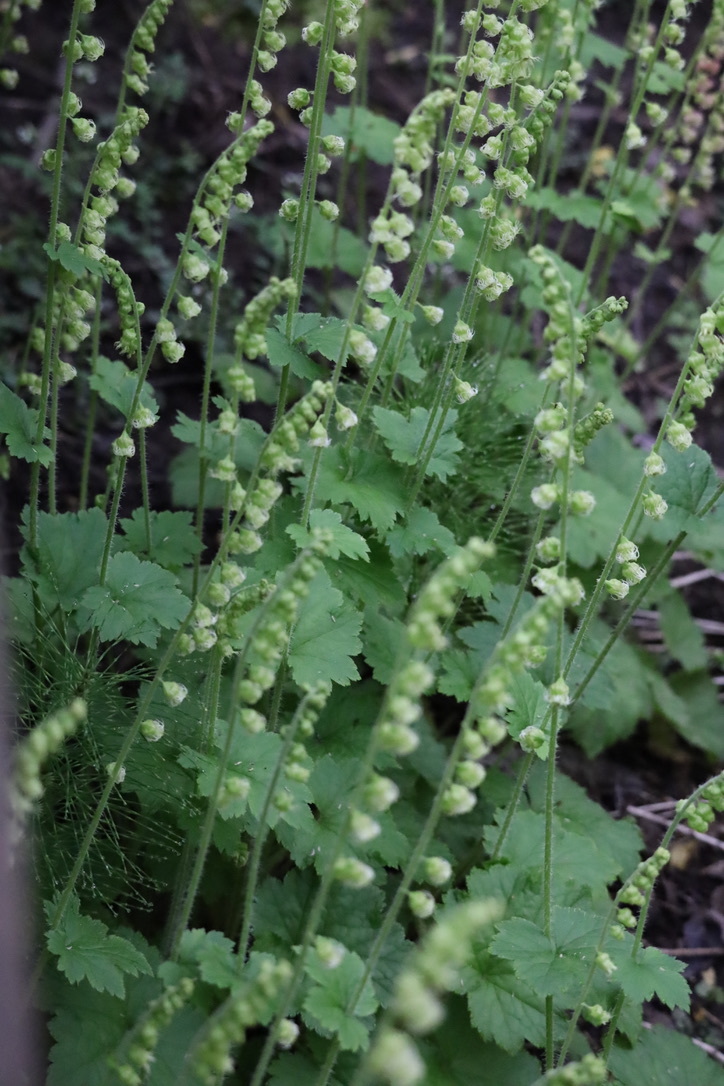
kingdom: Plantae
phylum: Tracheophyta
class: Magnoliopsida
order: Saxifragales
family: Saxifragaceae
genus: Tellima
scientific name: Tellima grandiflora
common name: Fringecups
